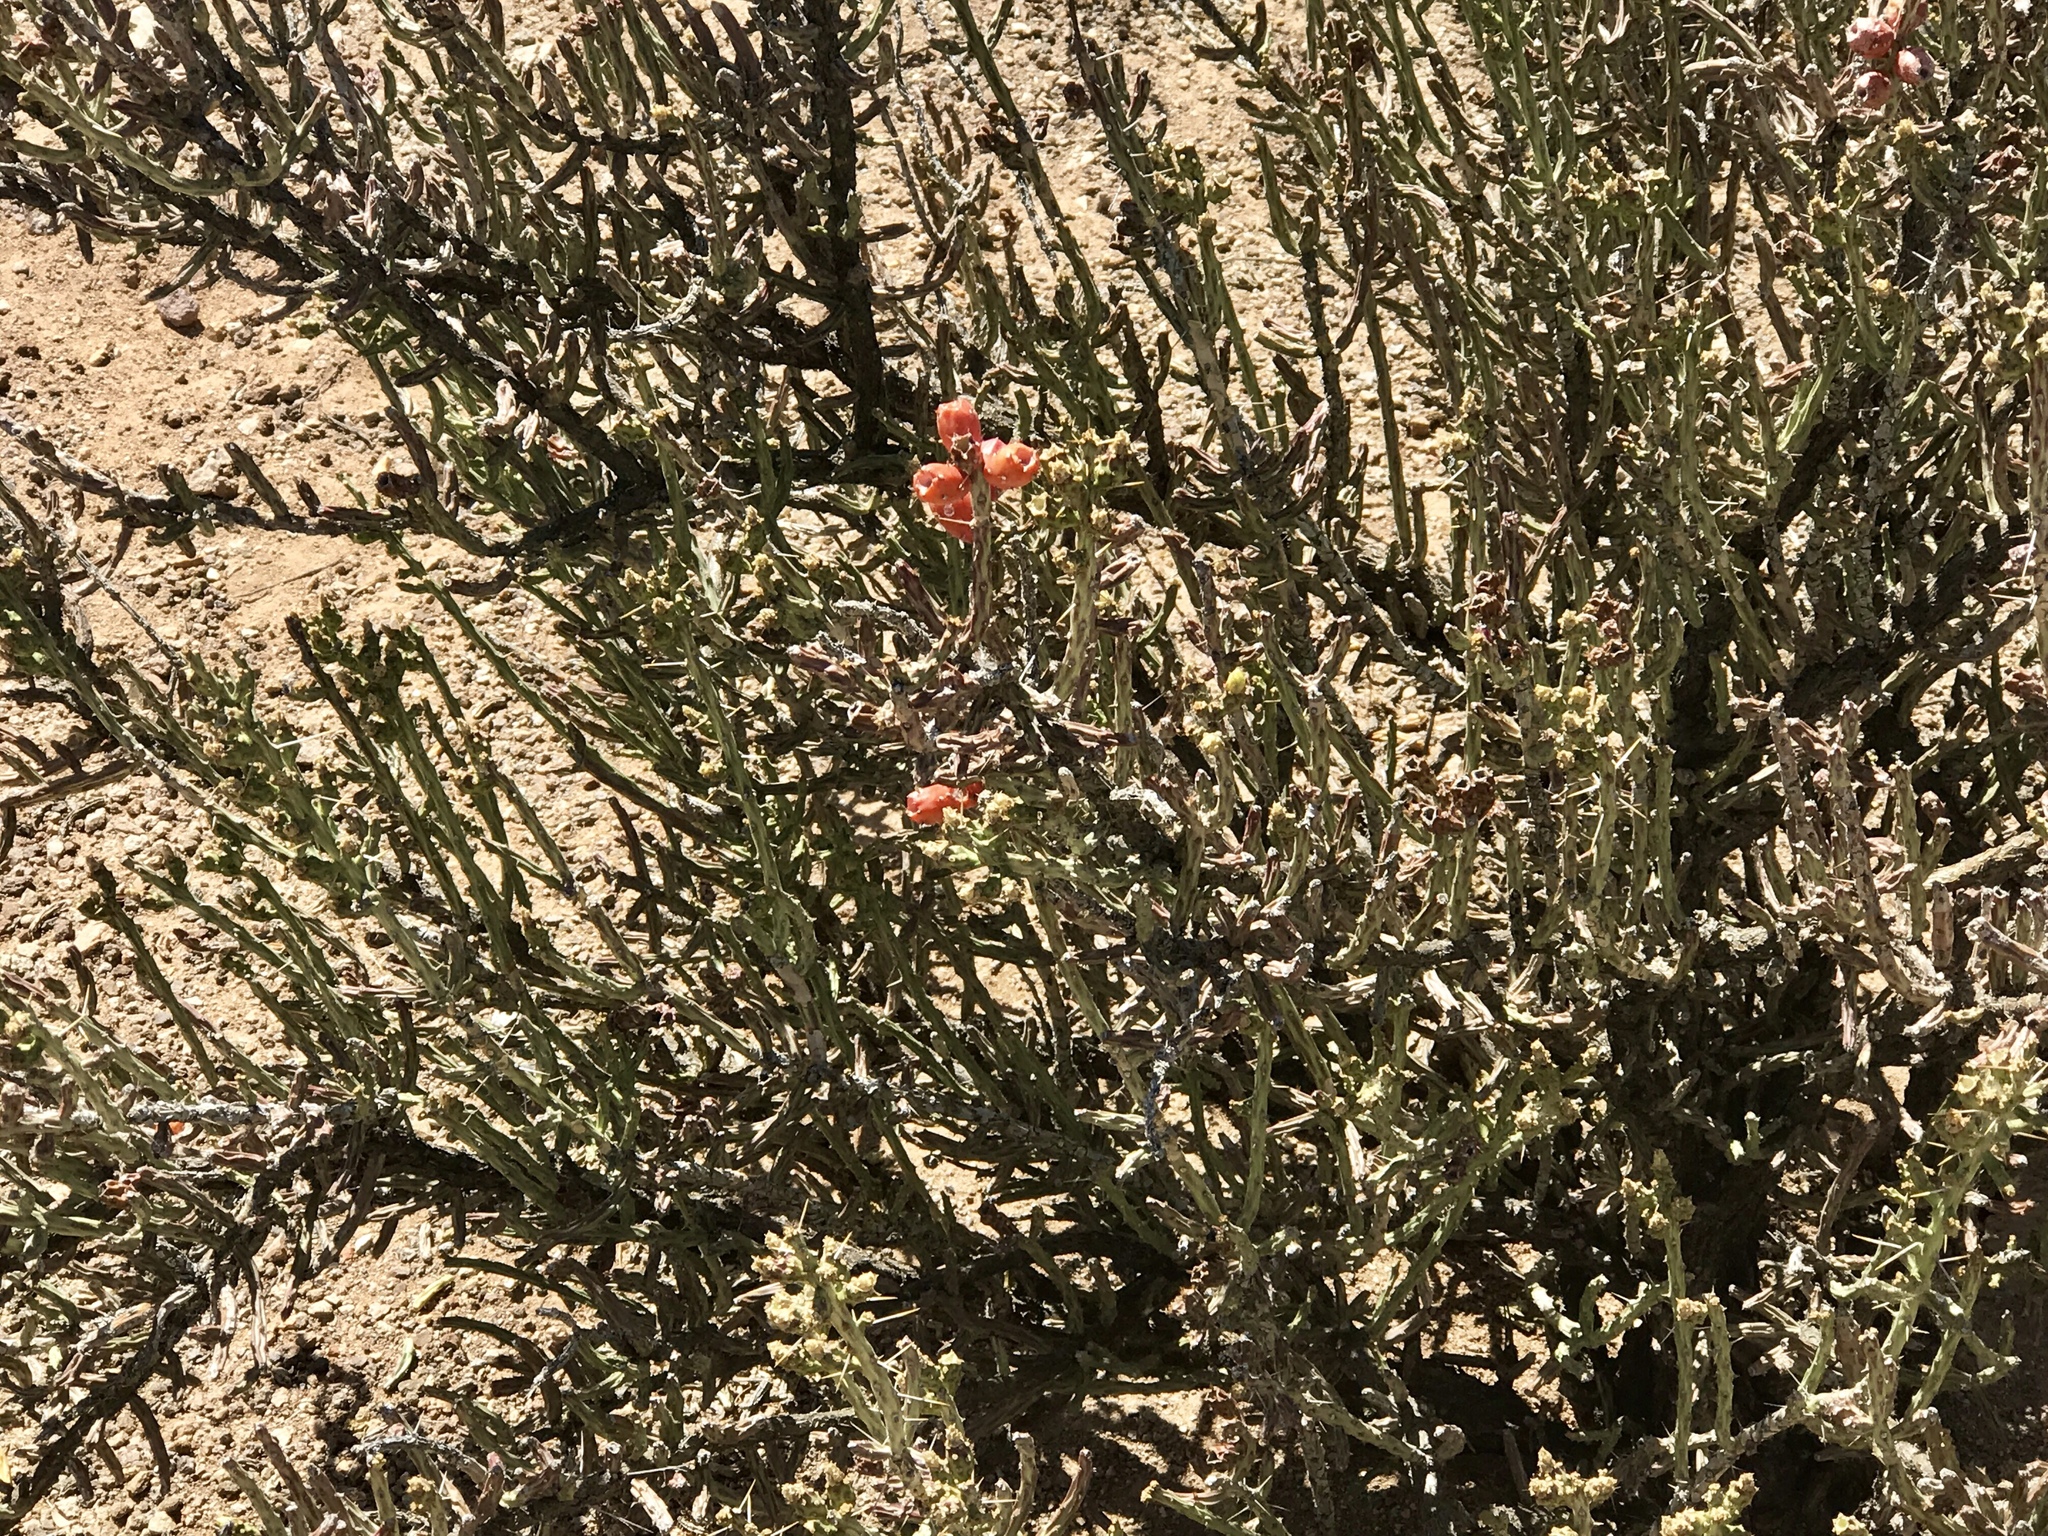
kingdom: Plantae
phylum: Tracheophyta
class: Magnoliopsida
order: Caryophyllales
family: Cactaceae
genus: Cylindropuntia
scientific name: Cylindropuntia leptocaulis
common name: Christmas cactus
